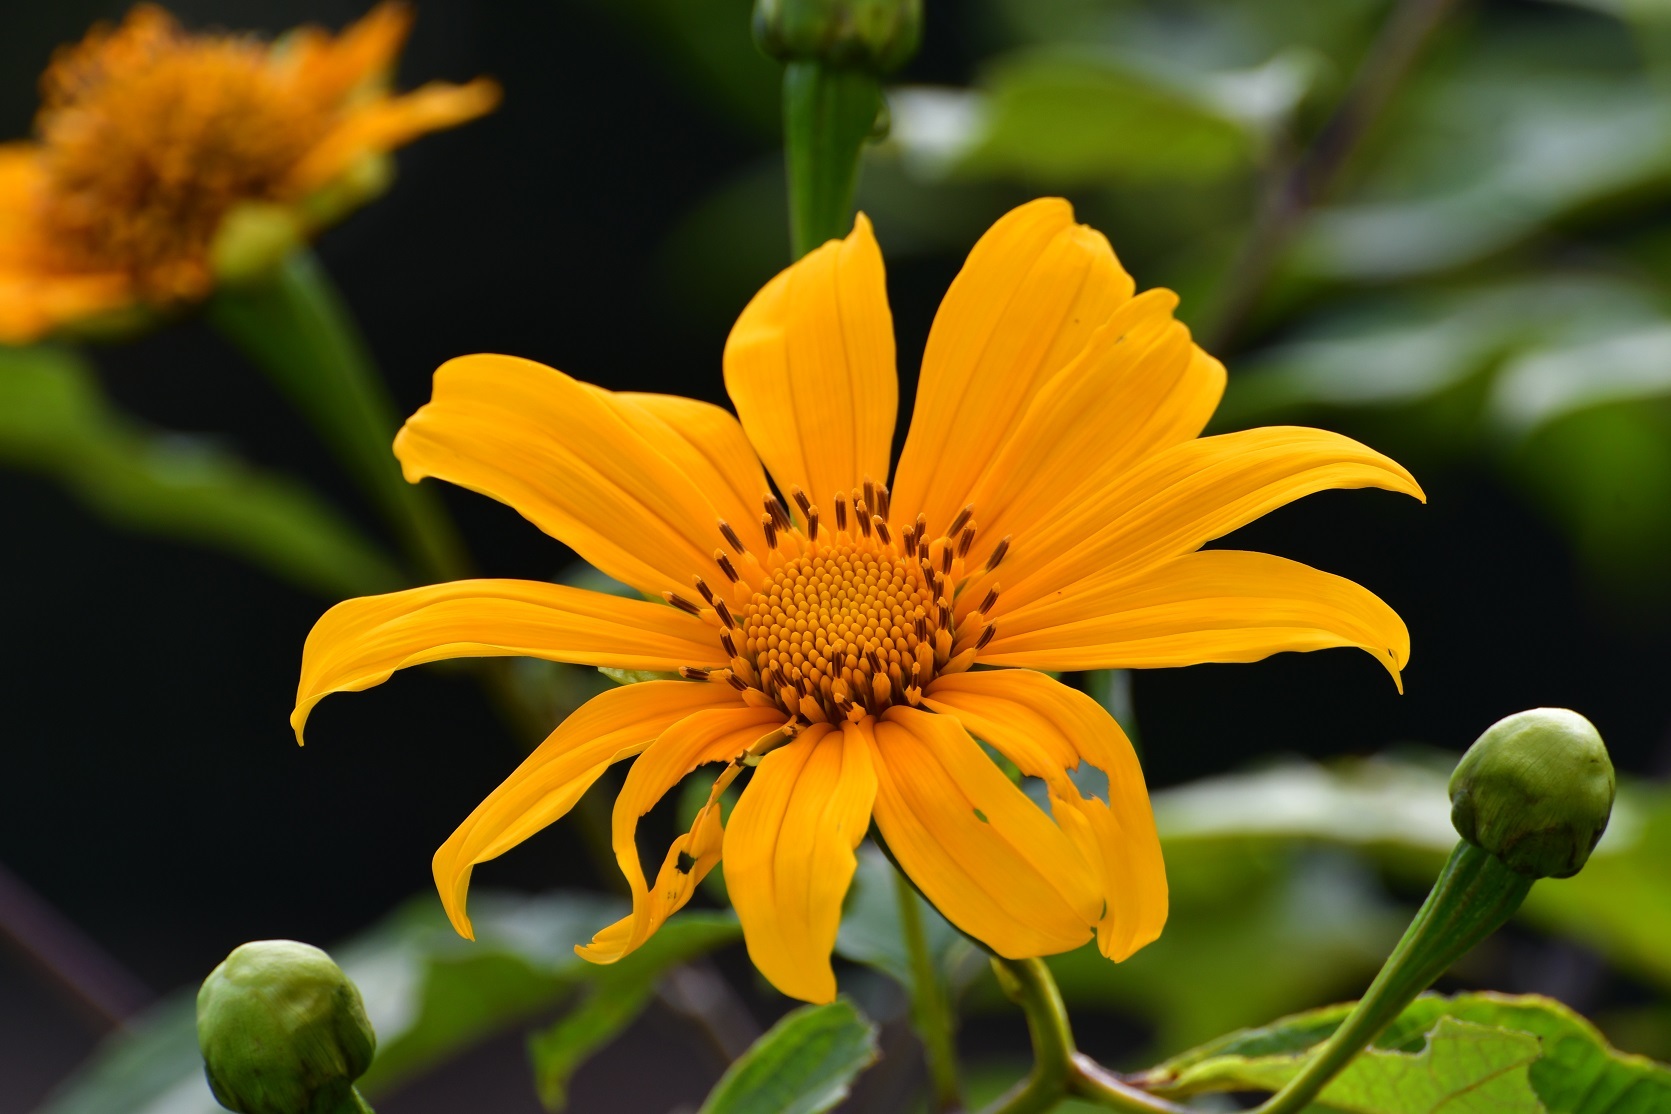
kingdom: Plantae
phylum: Tracheophyta
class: Magnoliopsida
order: Asterales
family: Asteraceae
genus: Tithonia
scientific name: Tithonia diversifolia
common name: Tree marigold
